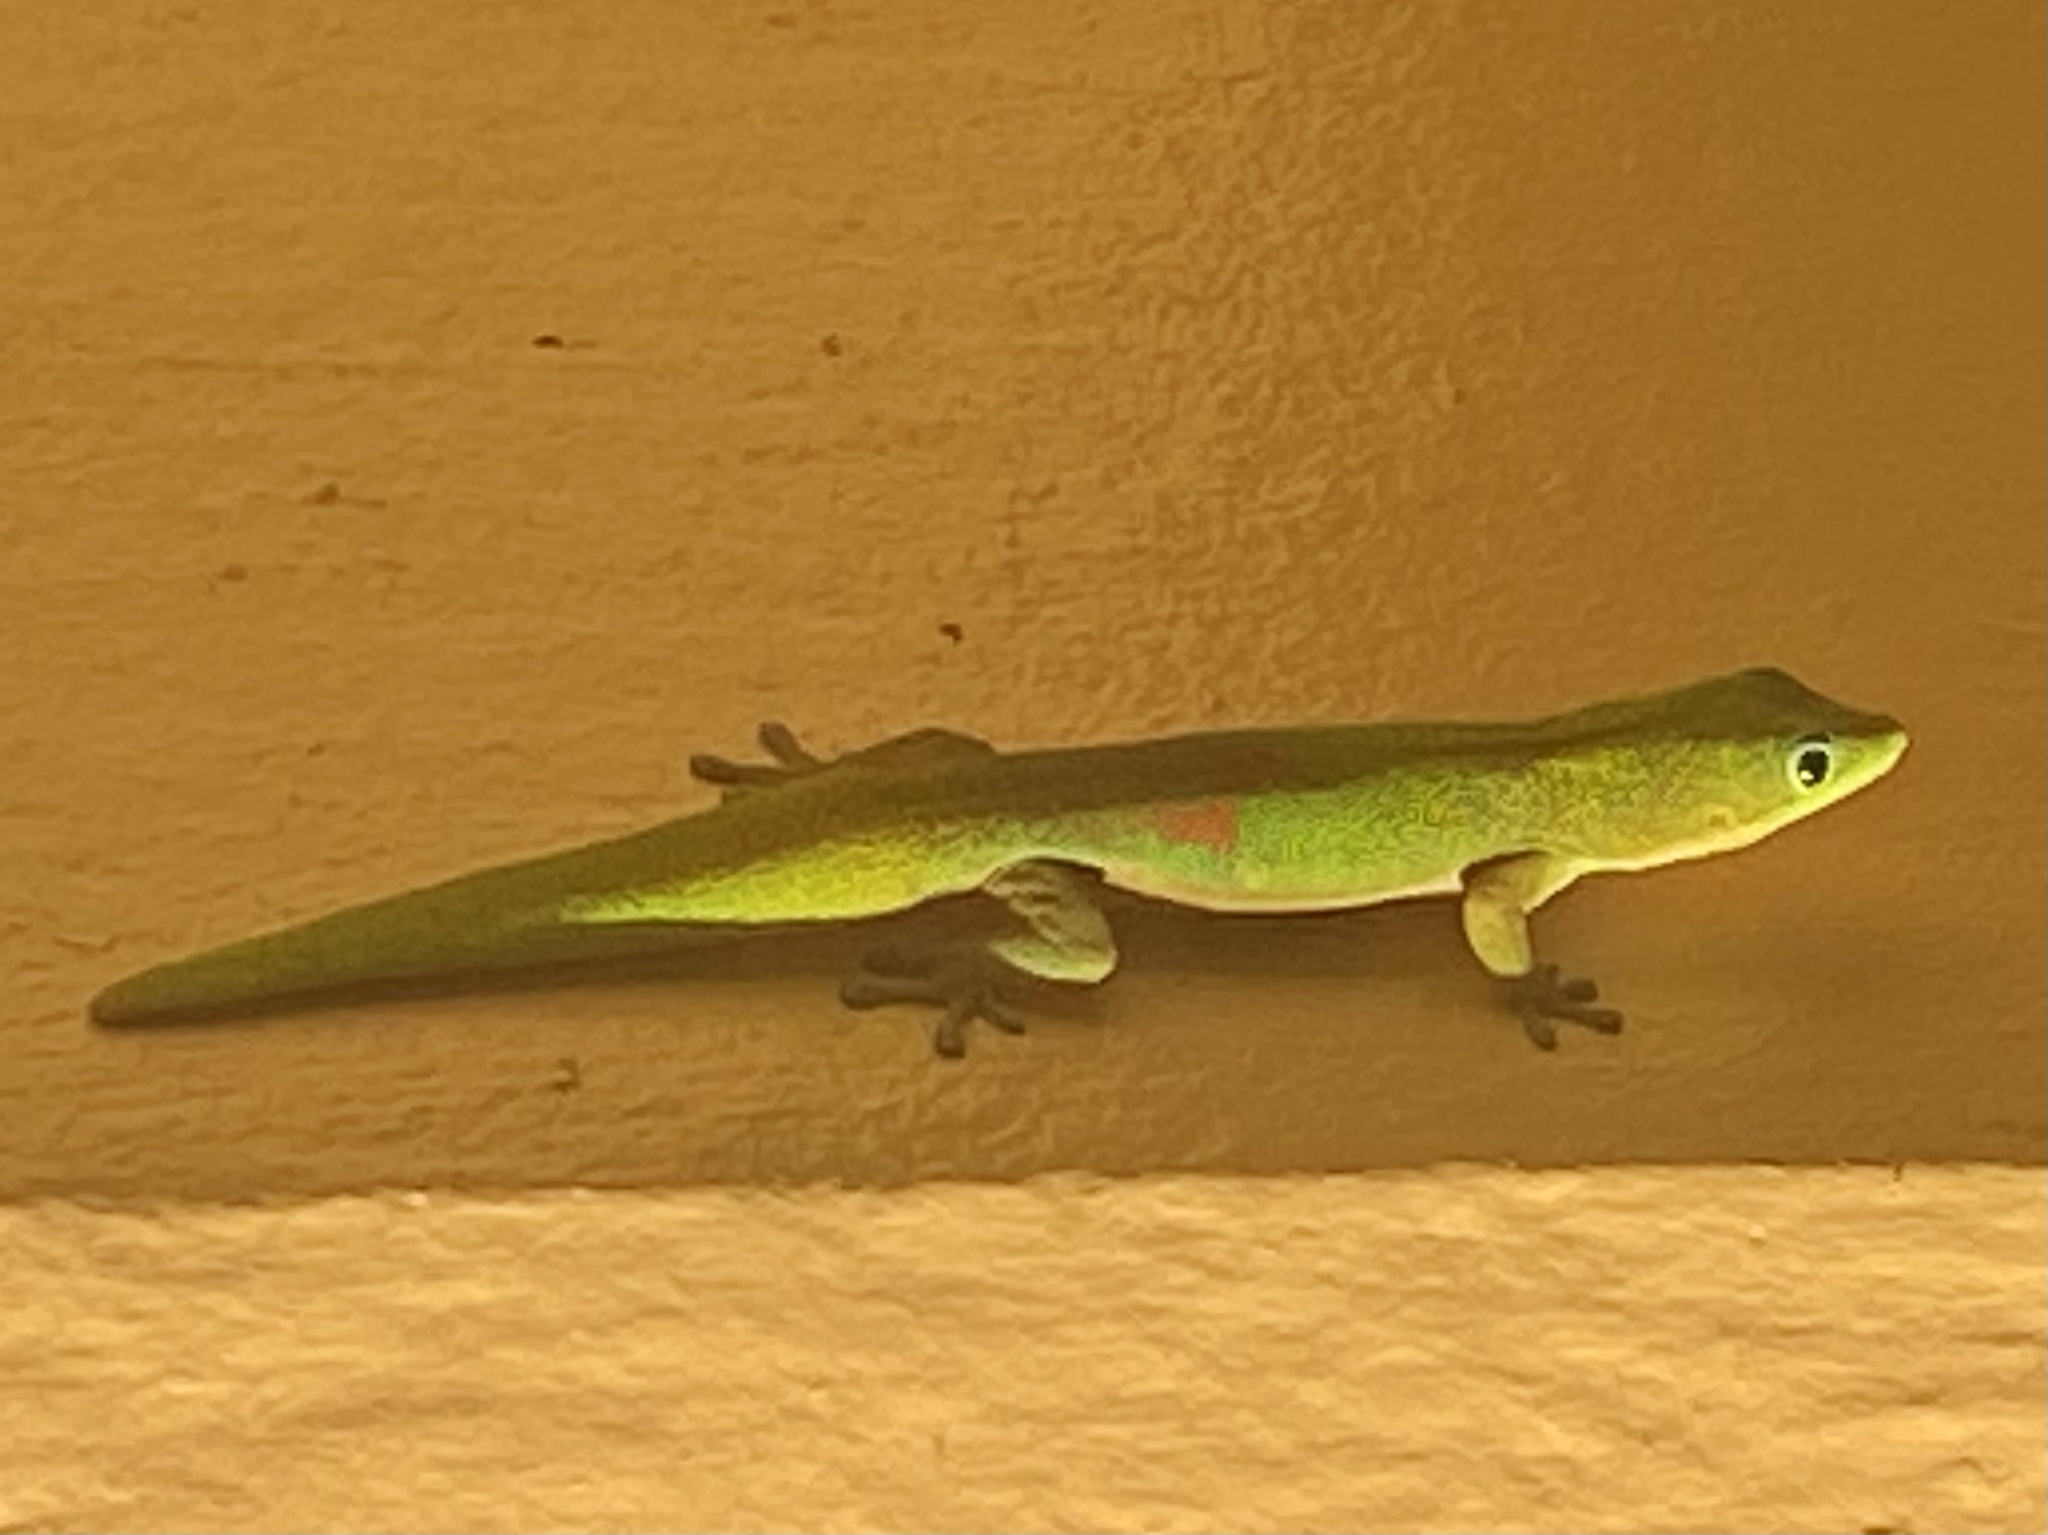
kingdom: Animalia
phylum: Chordata
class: Squamata
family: Gekkonidae
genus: Phelsuma
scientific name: Phelsuma laticauda
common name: Gold dust day gecko
